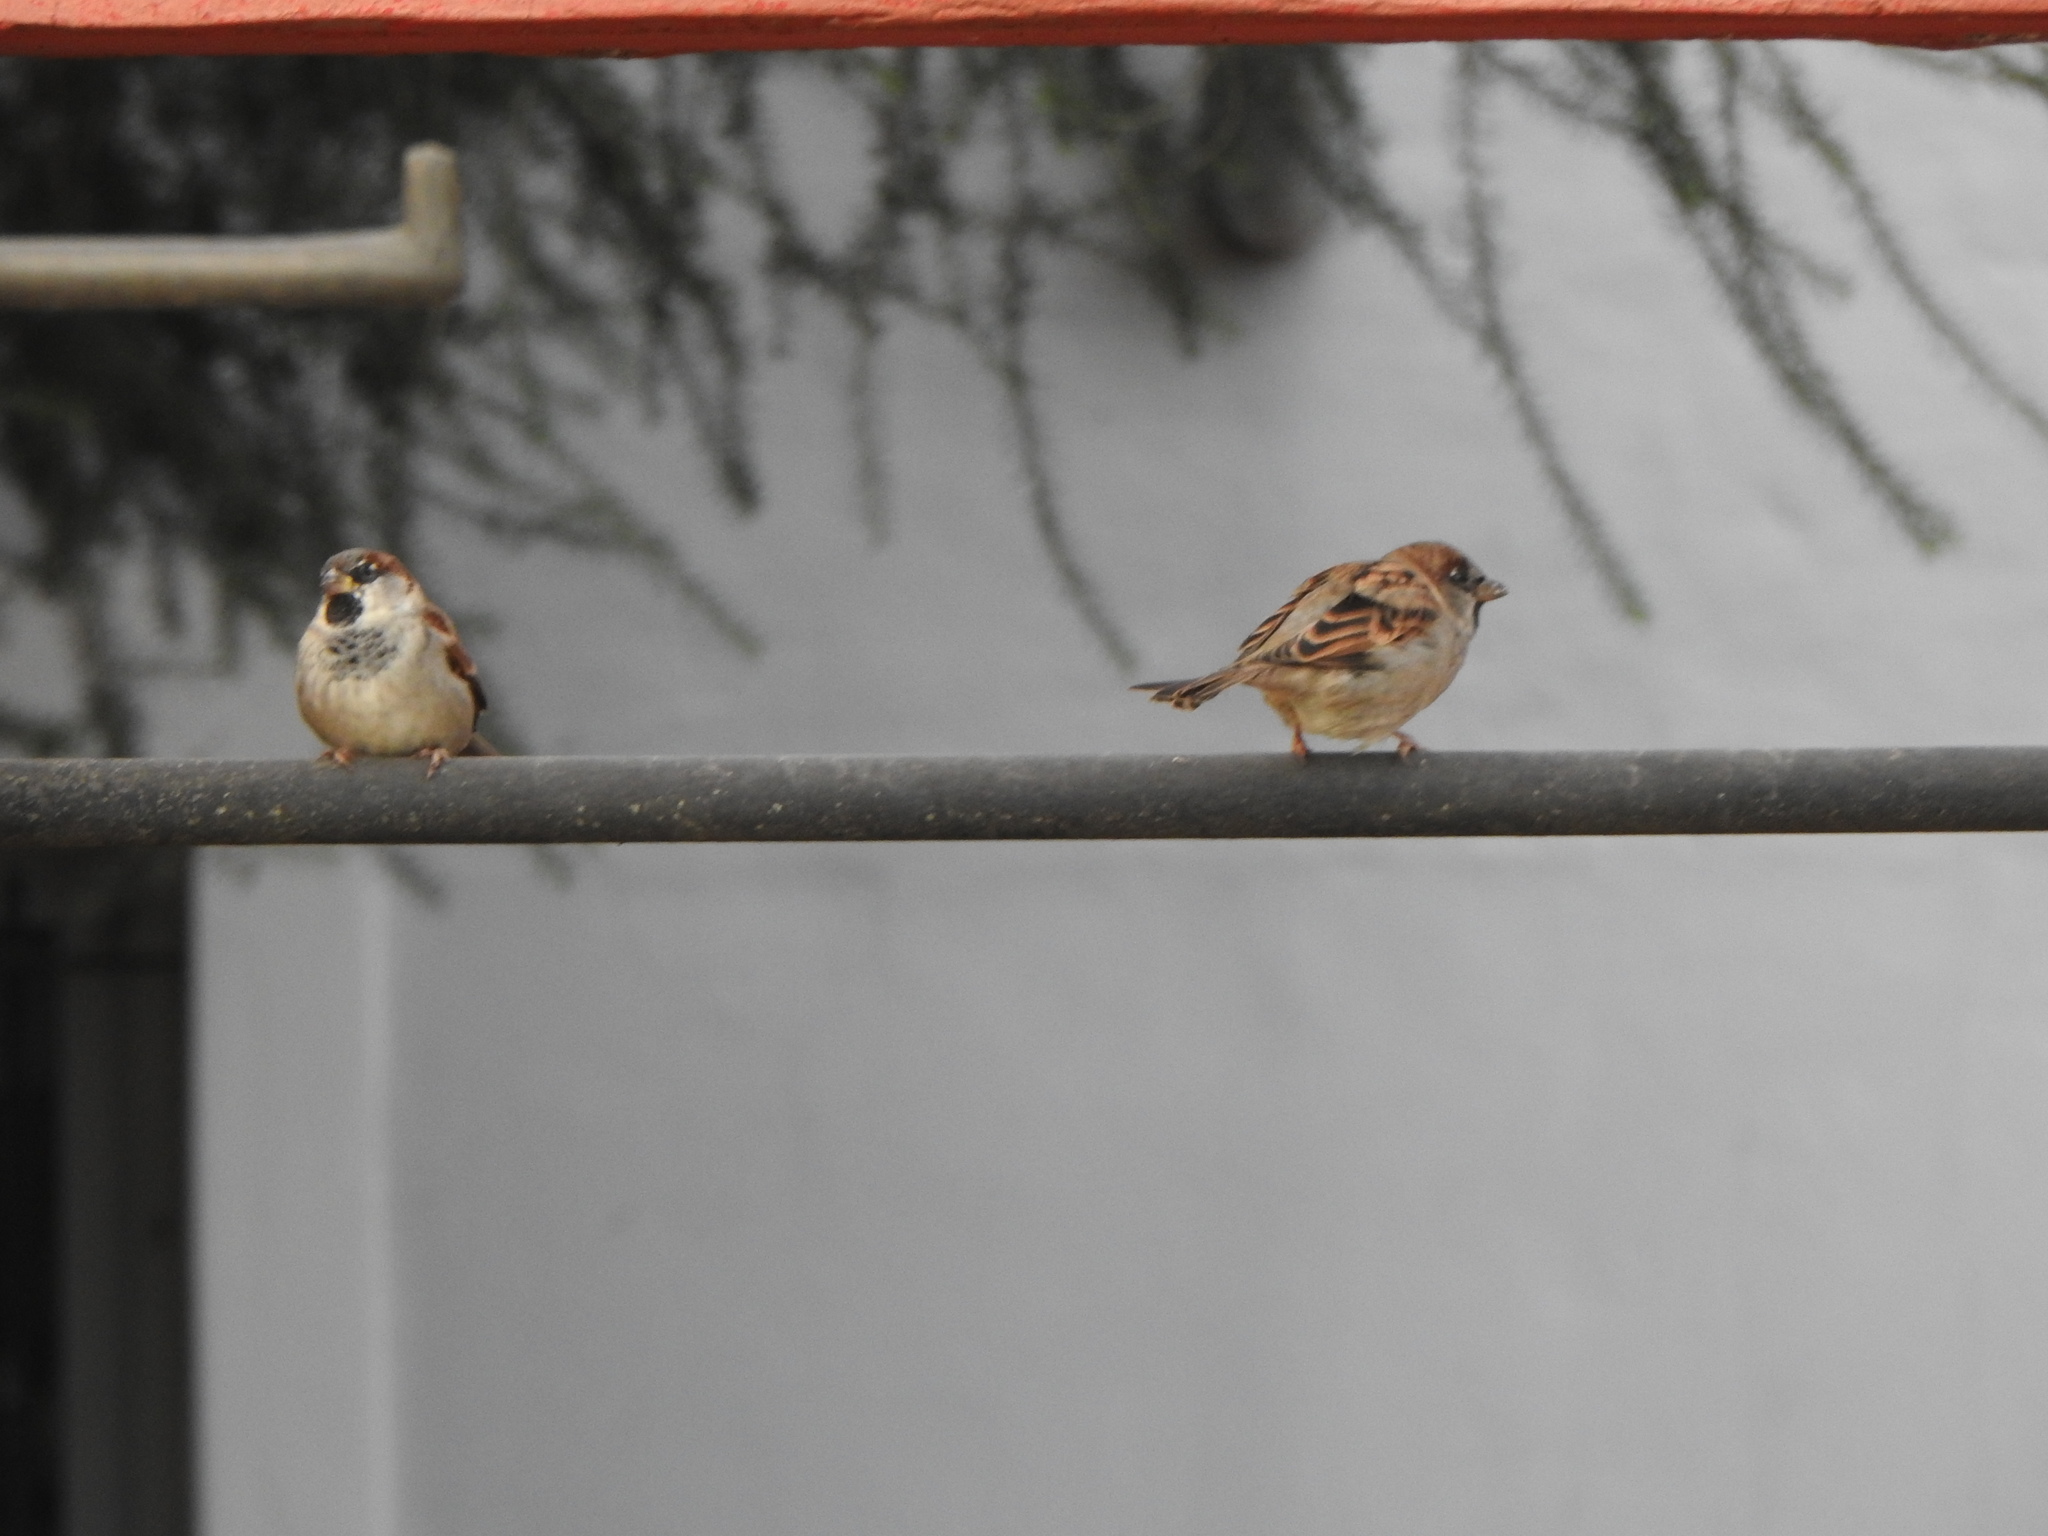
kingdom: Animalia
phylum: Chordata
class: Aves
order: Passeriformes
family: Passeridae
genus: Passer
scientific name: Passer domesticus
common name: House sparrow
